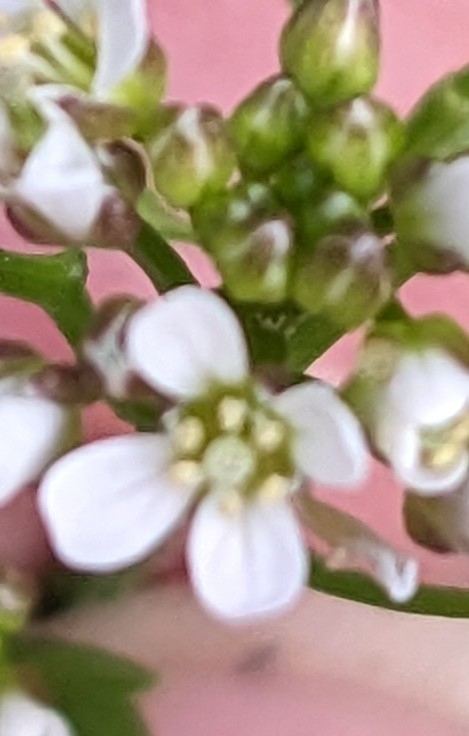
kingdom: Plantae
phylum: Tracheophyta
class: Magnoliopsida
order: Brassicales
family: Brassicaceae
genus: Cardamine
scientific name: Cardamine flexuosa
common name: Woodland bittercress
